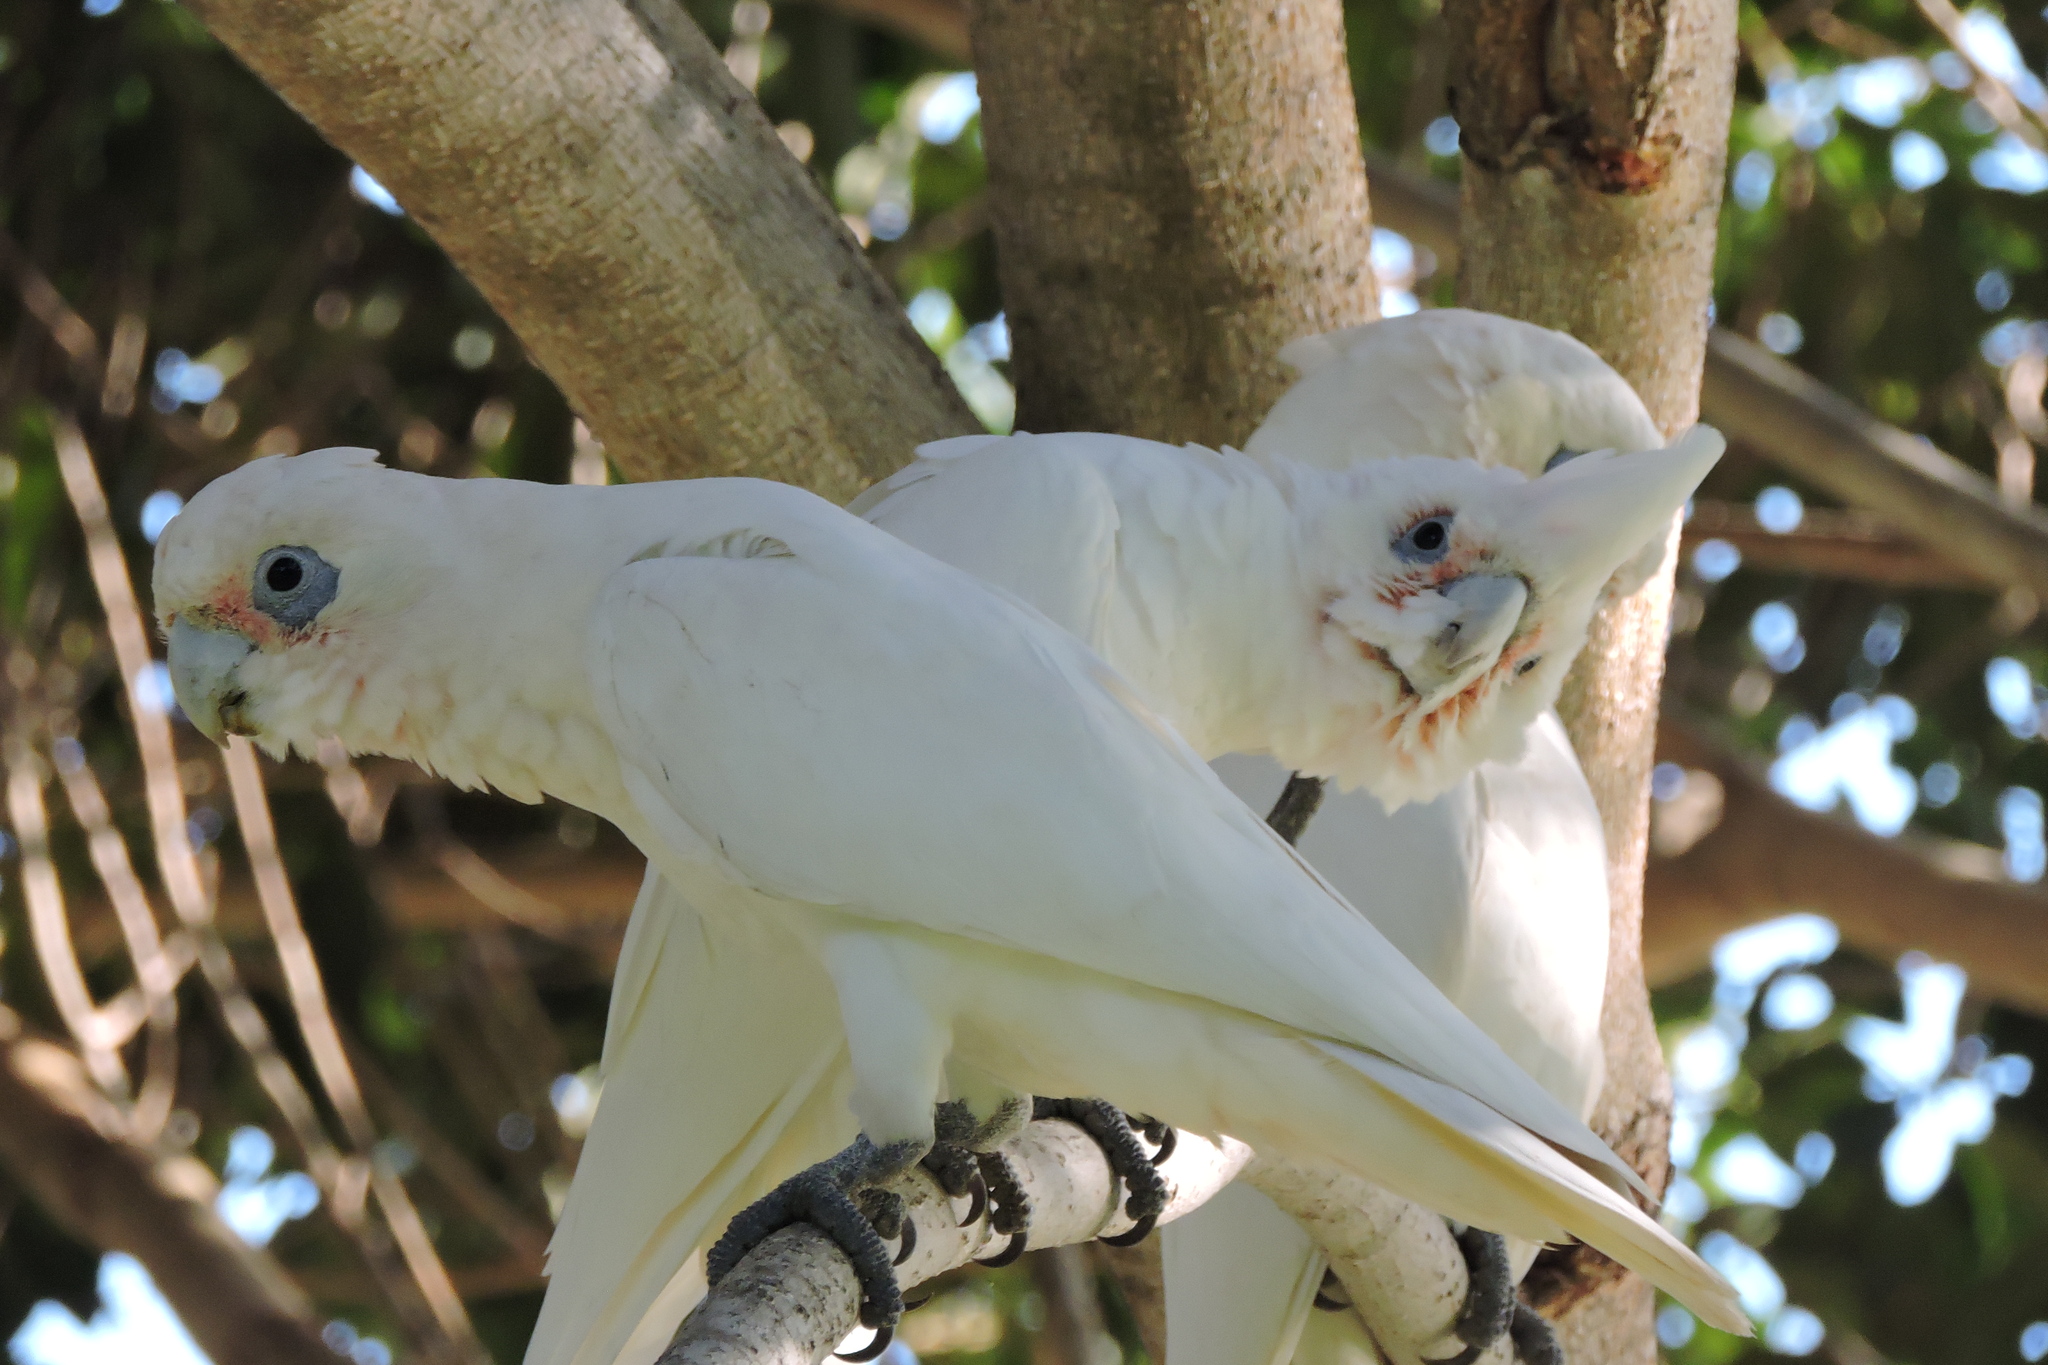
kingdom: Animalia
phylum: Chordata
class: Aves
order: Psittaciformes
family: Psittacidae
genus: Cacatua
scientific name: Cacatua sanguinea
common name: Little corella
